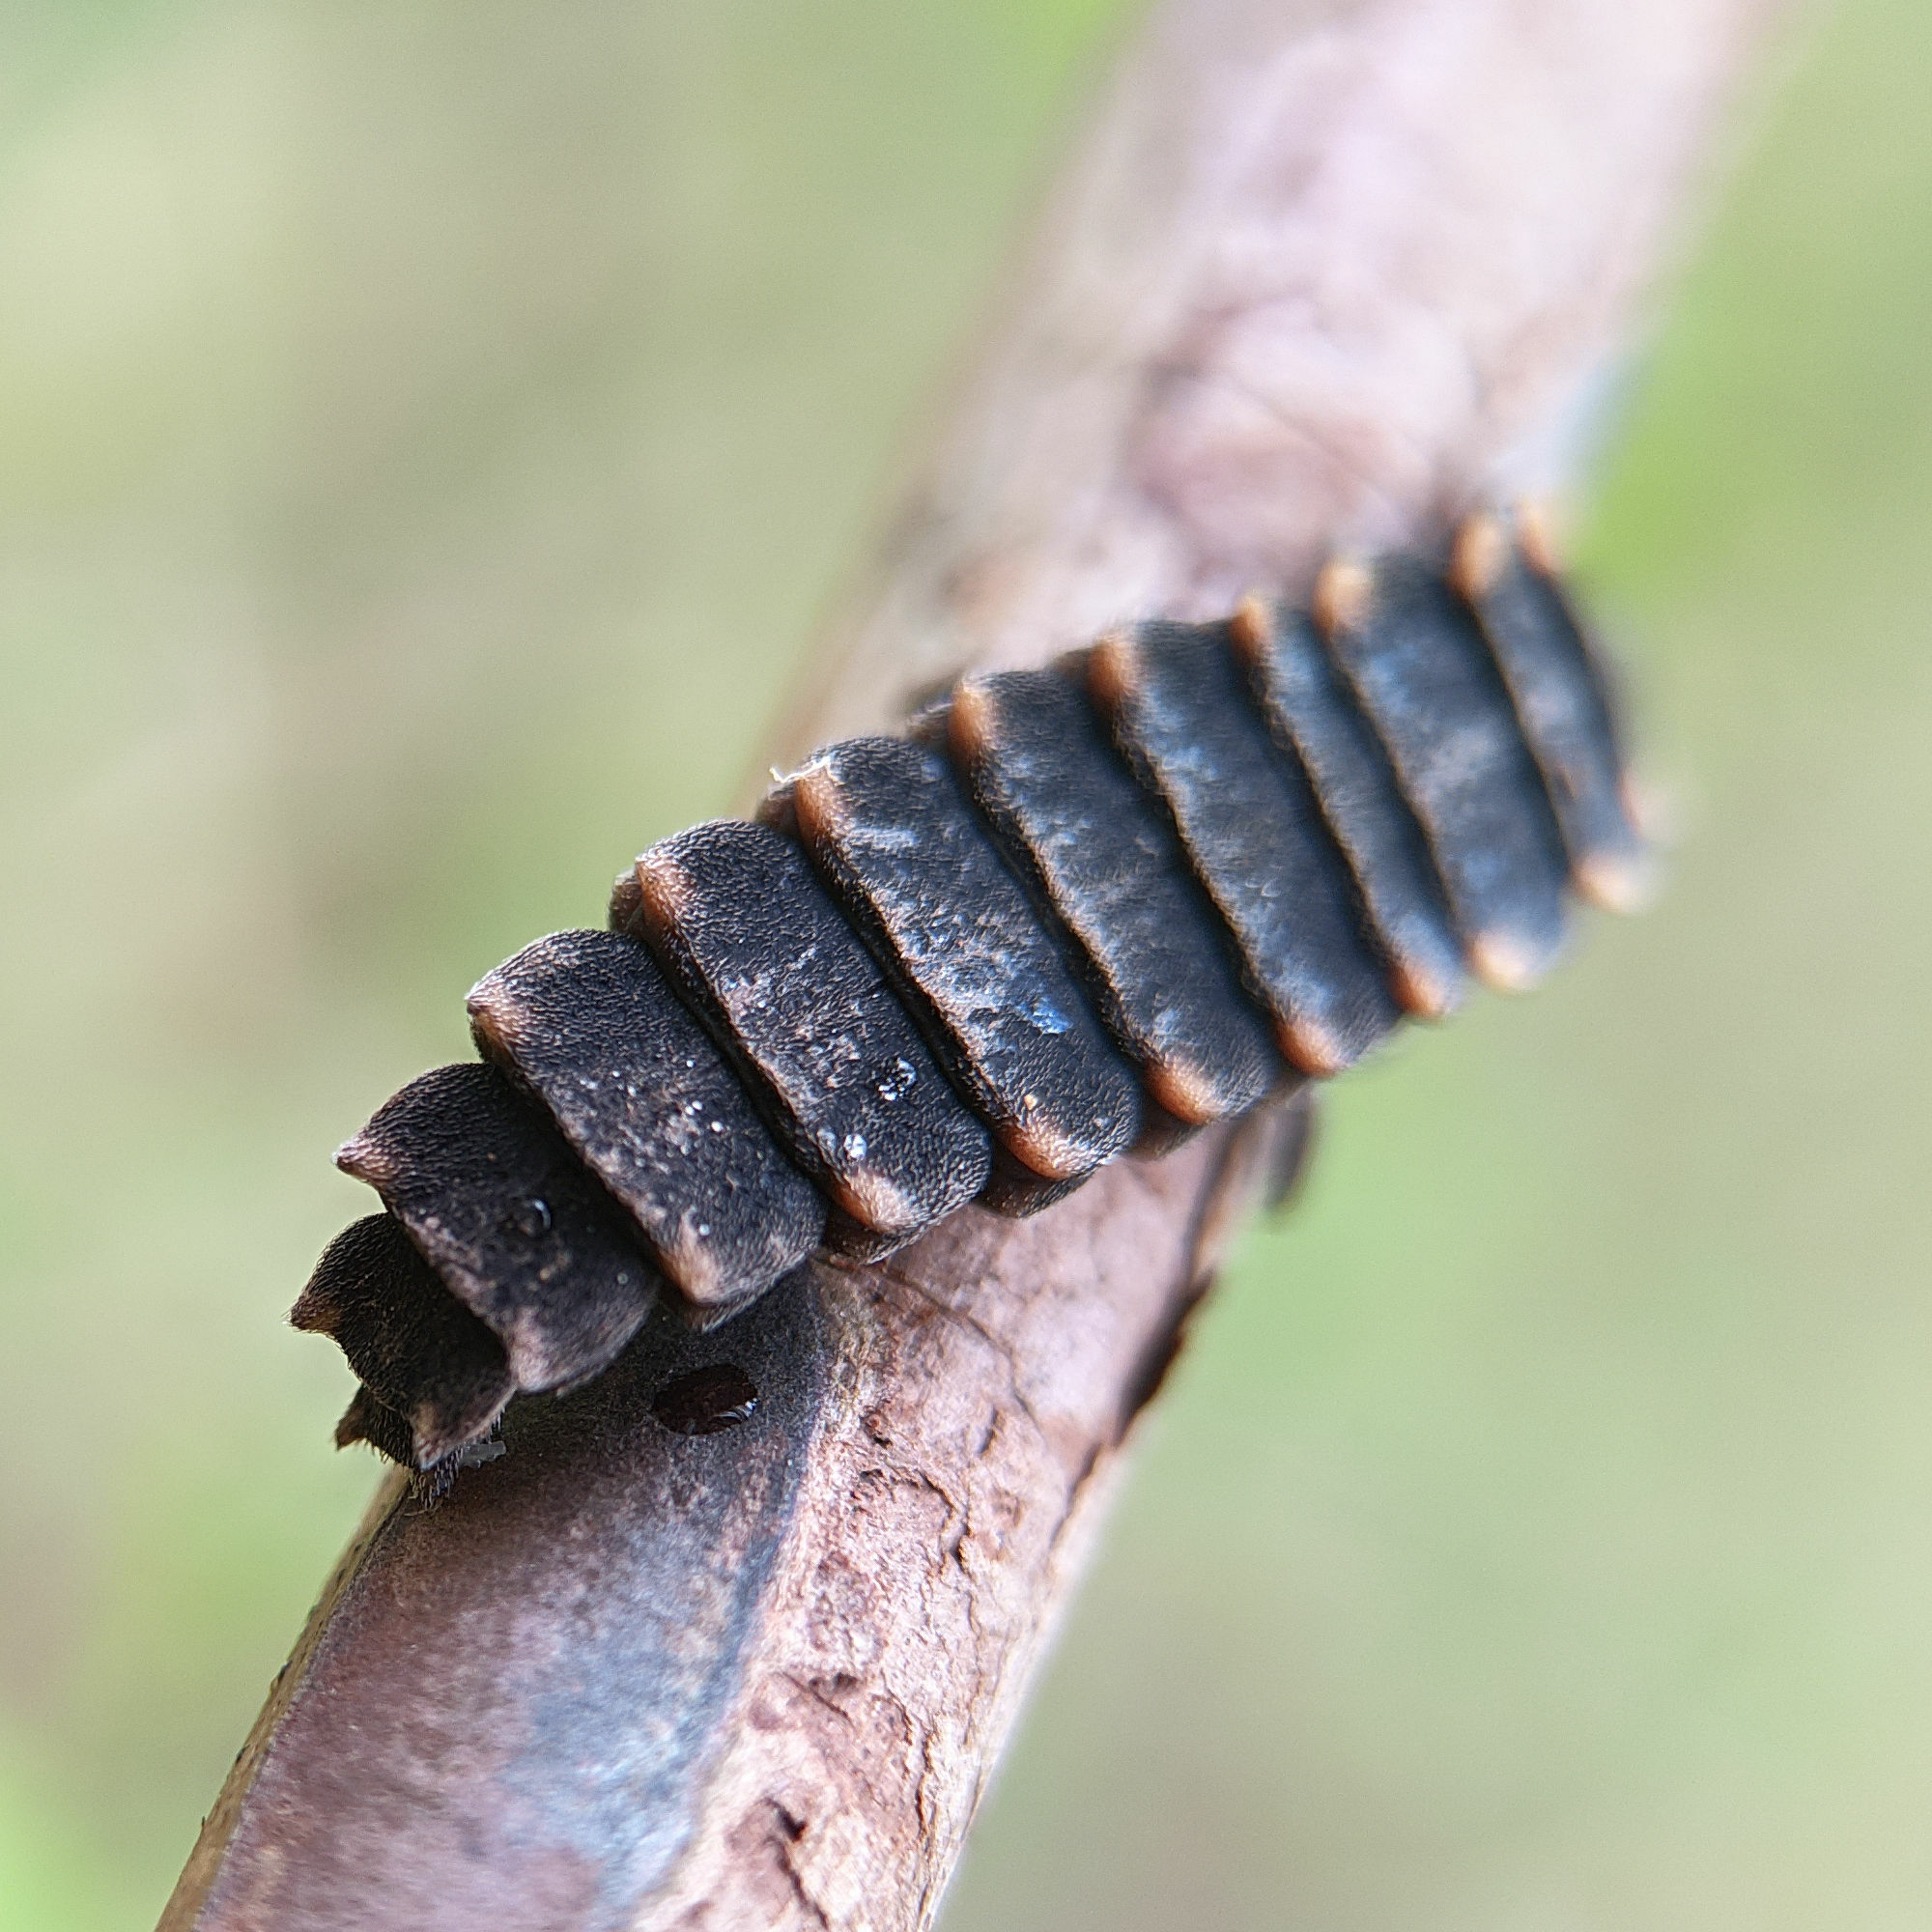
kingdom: Animalia
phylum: Arthropoda
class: Insecta
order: Coleoptera
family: Lampyridae
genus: Lampyris
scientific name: Lampyris noctiluca
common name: Glow-worm
